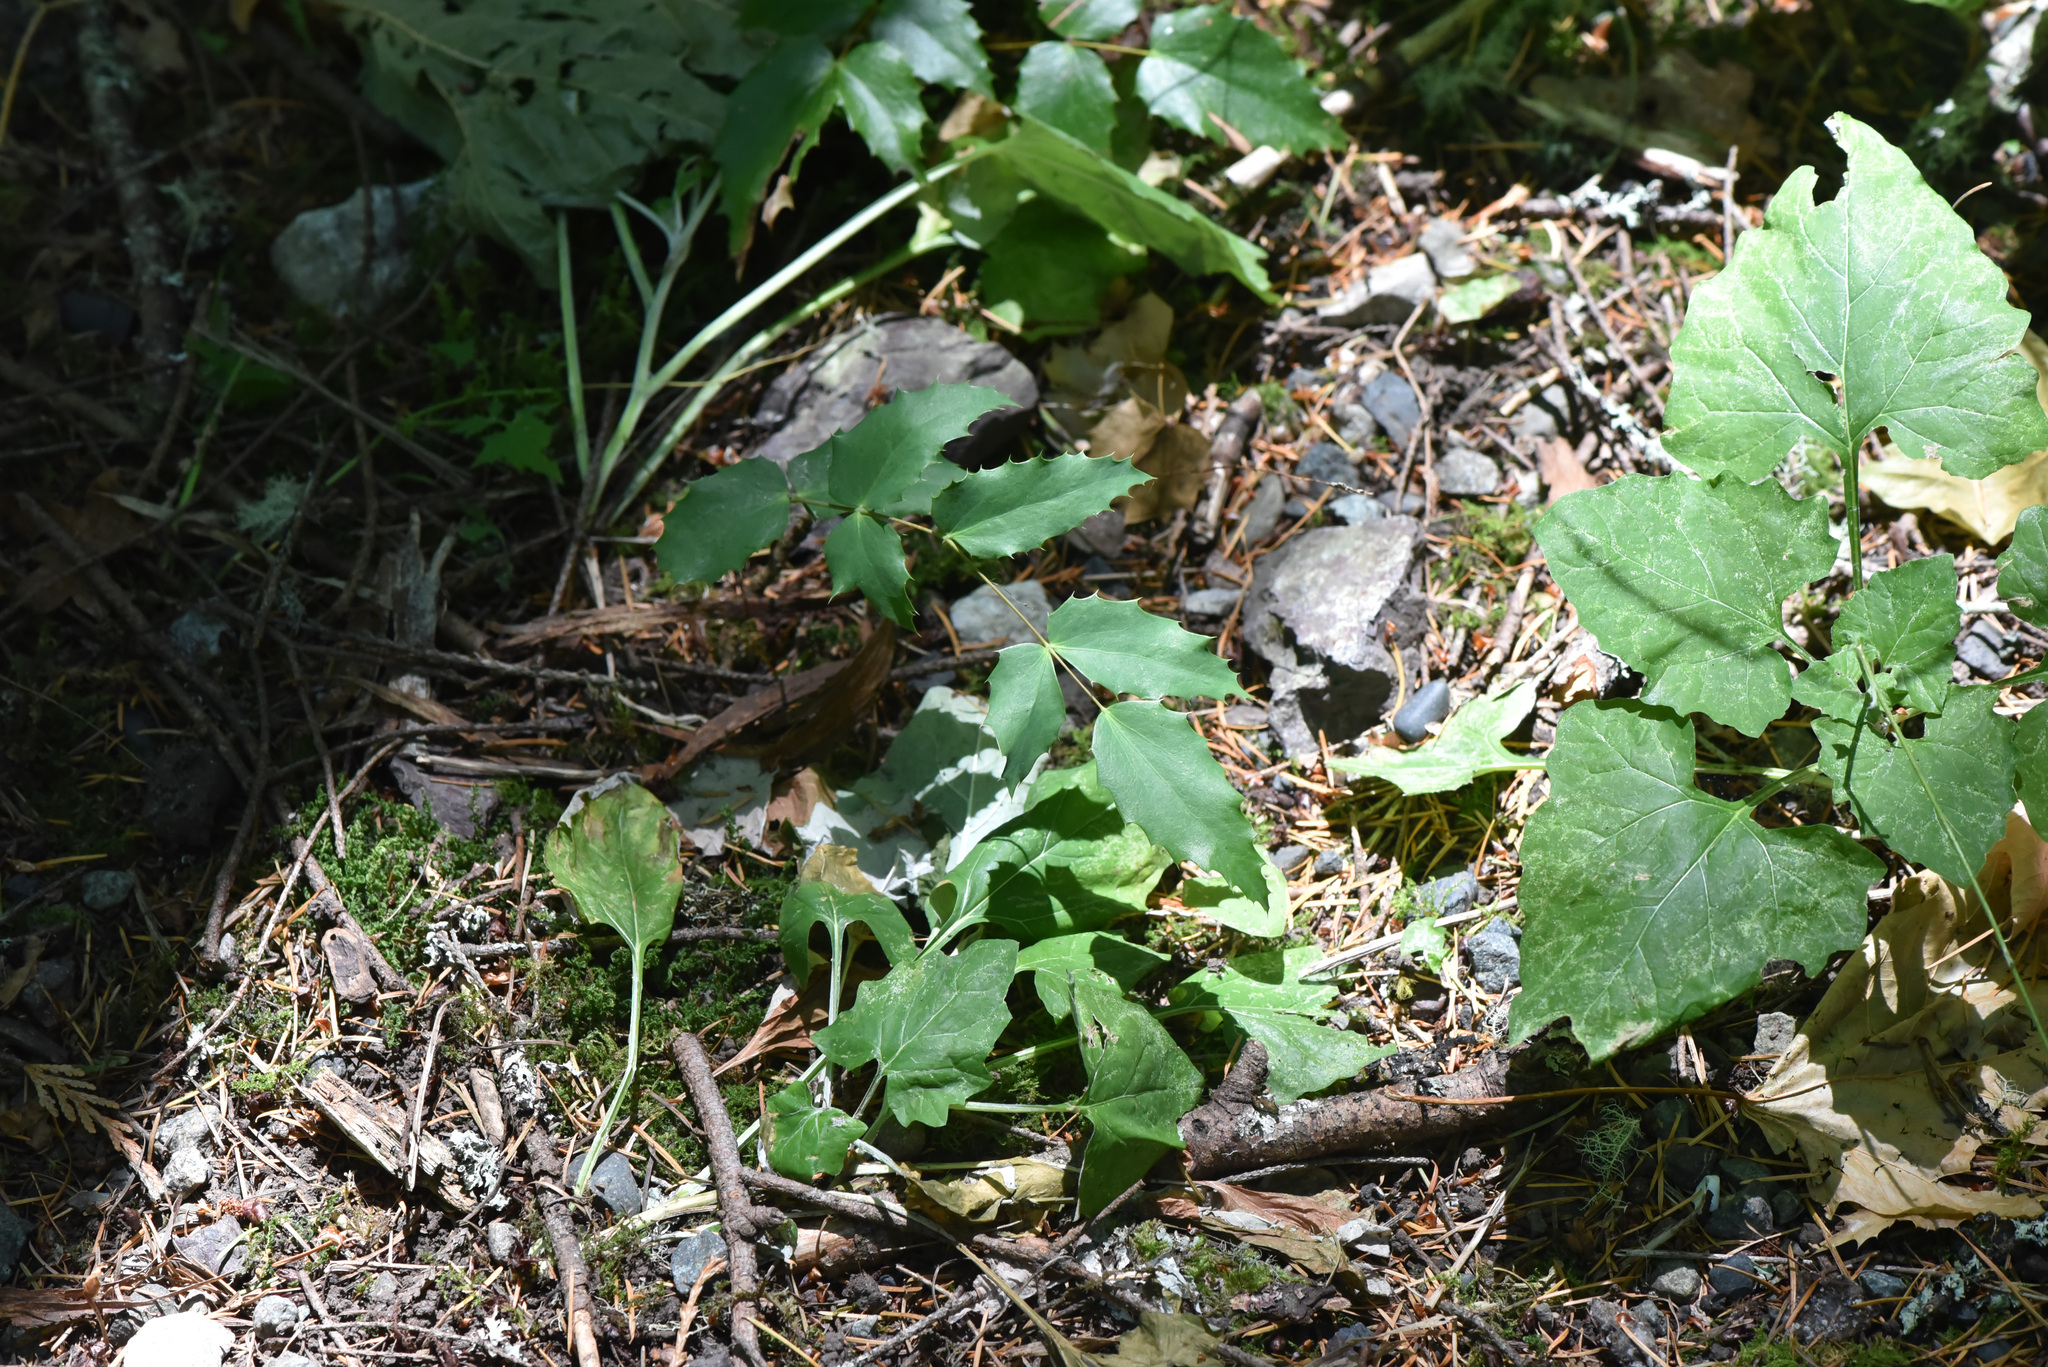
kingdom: Plantae
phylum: Tracheophyta
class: Magnoliopsida
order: Ranunculales
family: Berberidaceae
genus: Mahonia
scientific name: Mahonia nervosa
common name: Cascade oregon-grape
